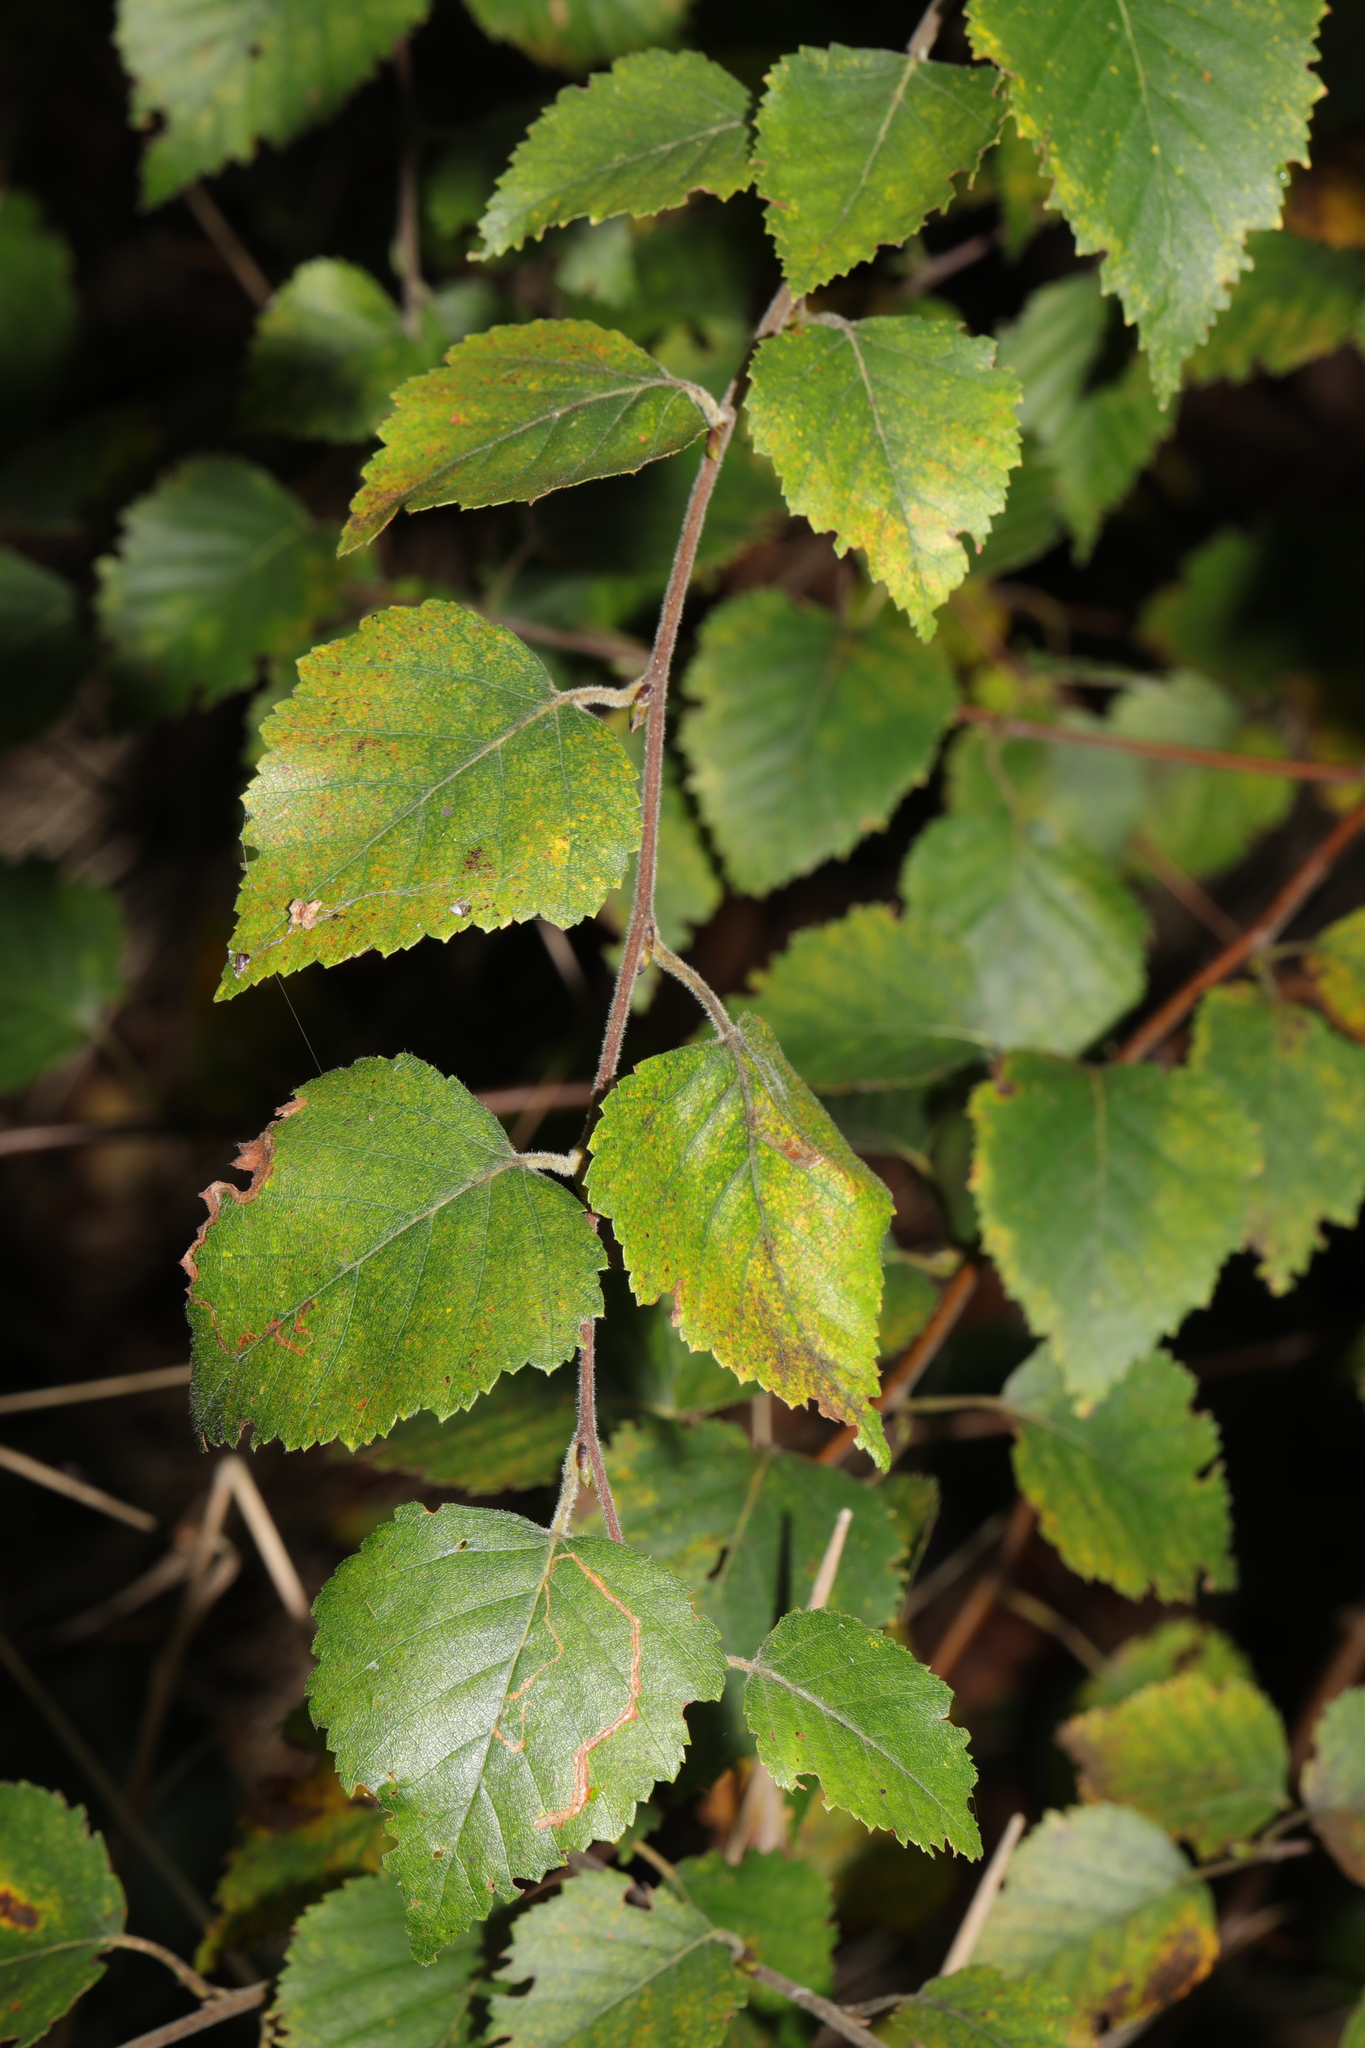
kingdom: Plantae
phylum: Tracheophyta
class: Magnoliopsida
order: Fagales
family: Betulaceae
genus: Betula
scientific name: Betula pubescens
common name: Downy birch
